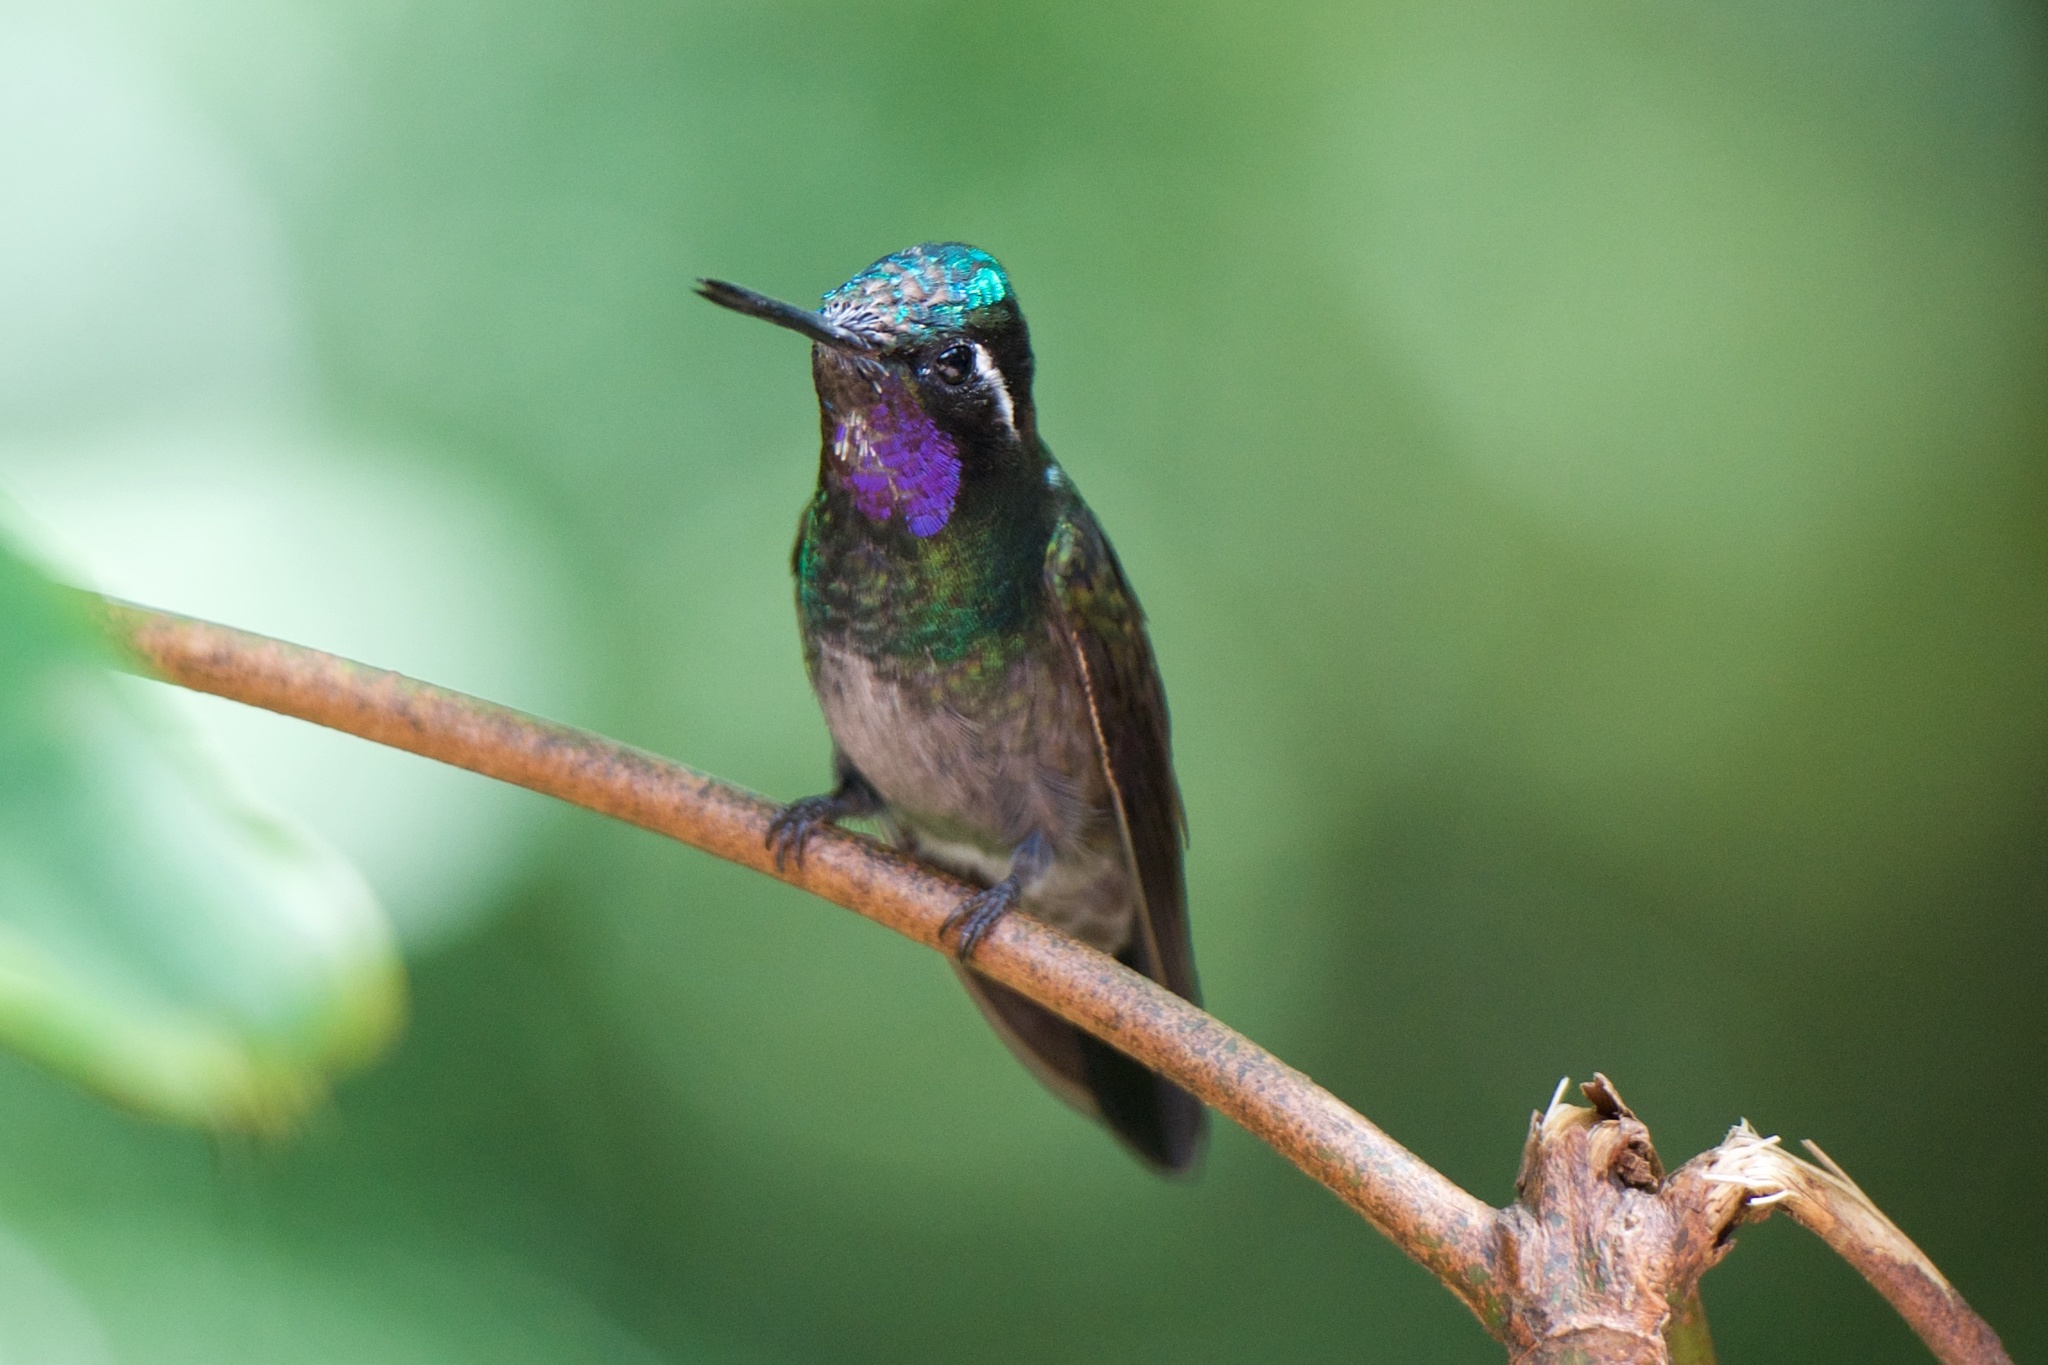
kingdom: Animalia
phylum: Chordata
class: Aves
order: Apodiformes
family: Trochilidae
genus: Lampornis
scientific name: Lampornis calolaemus
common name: Purple-throated mountain-gem
